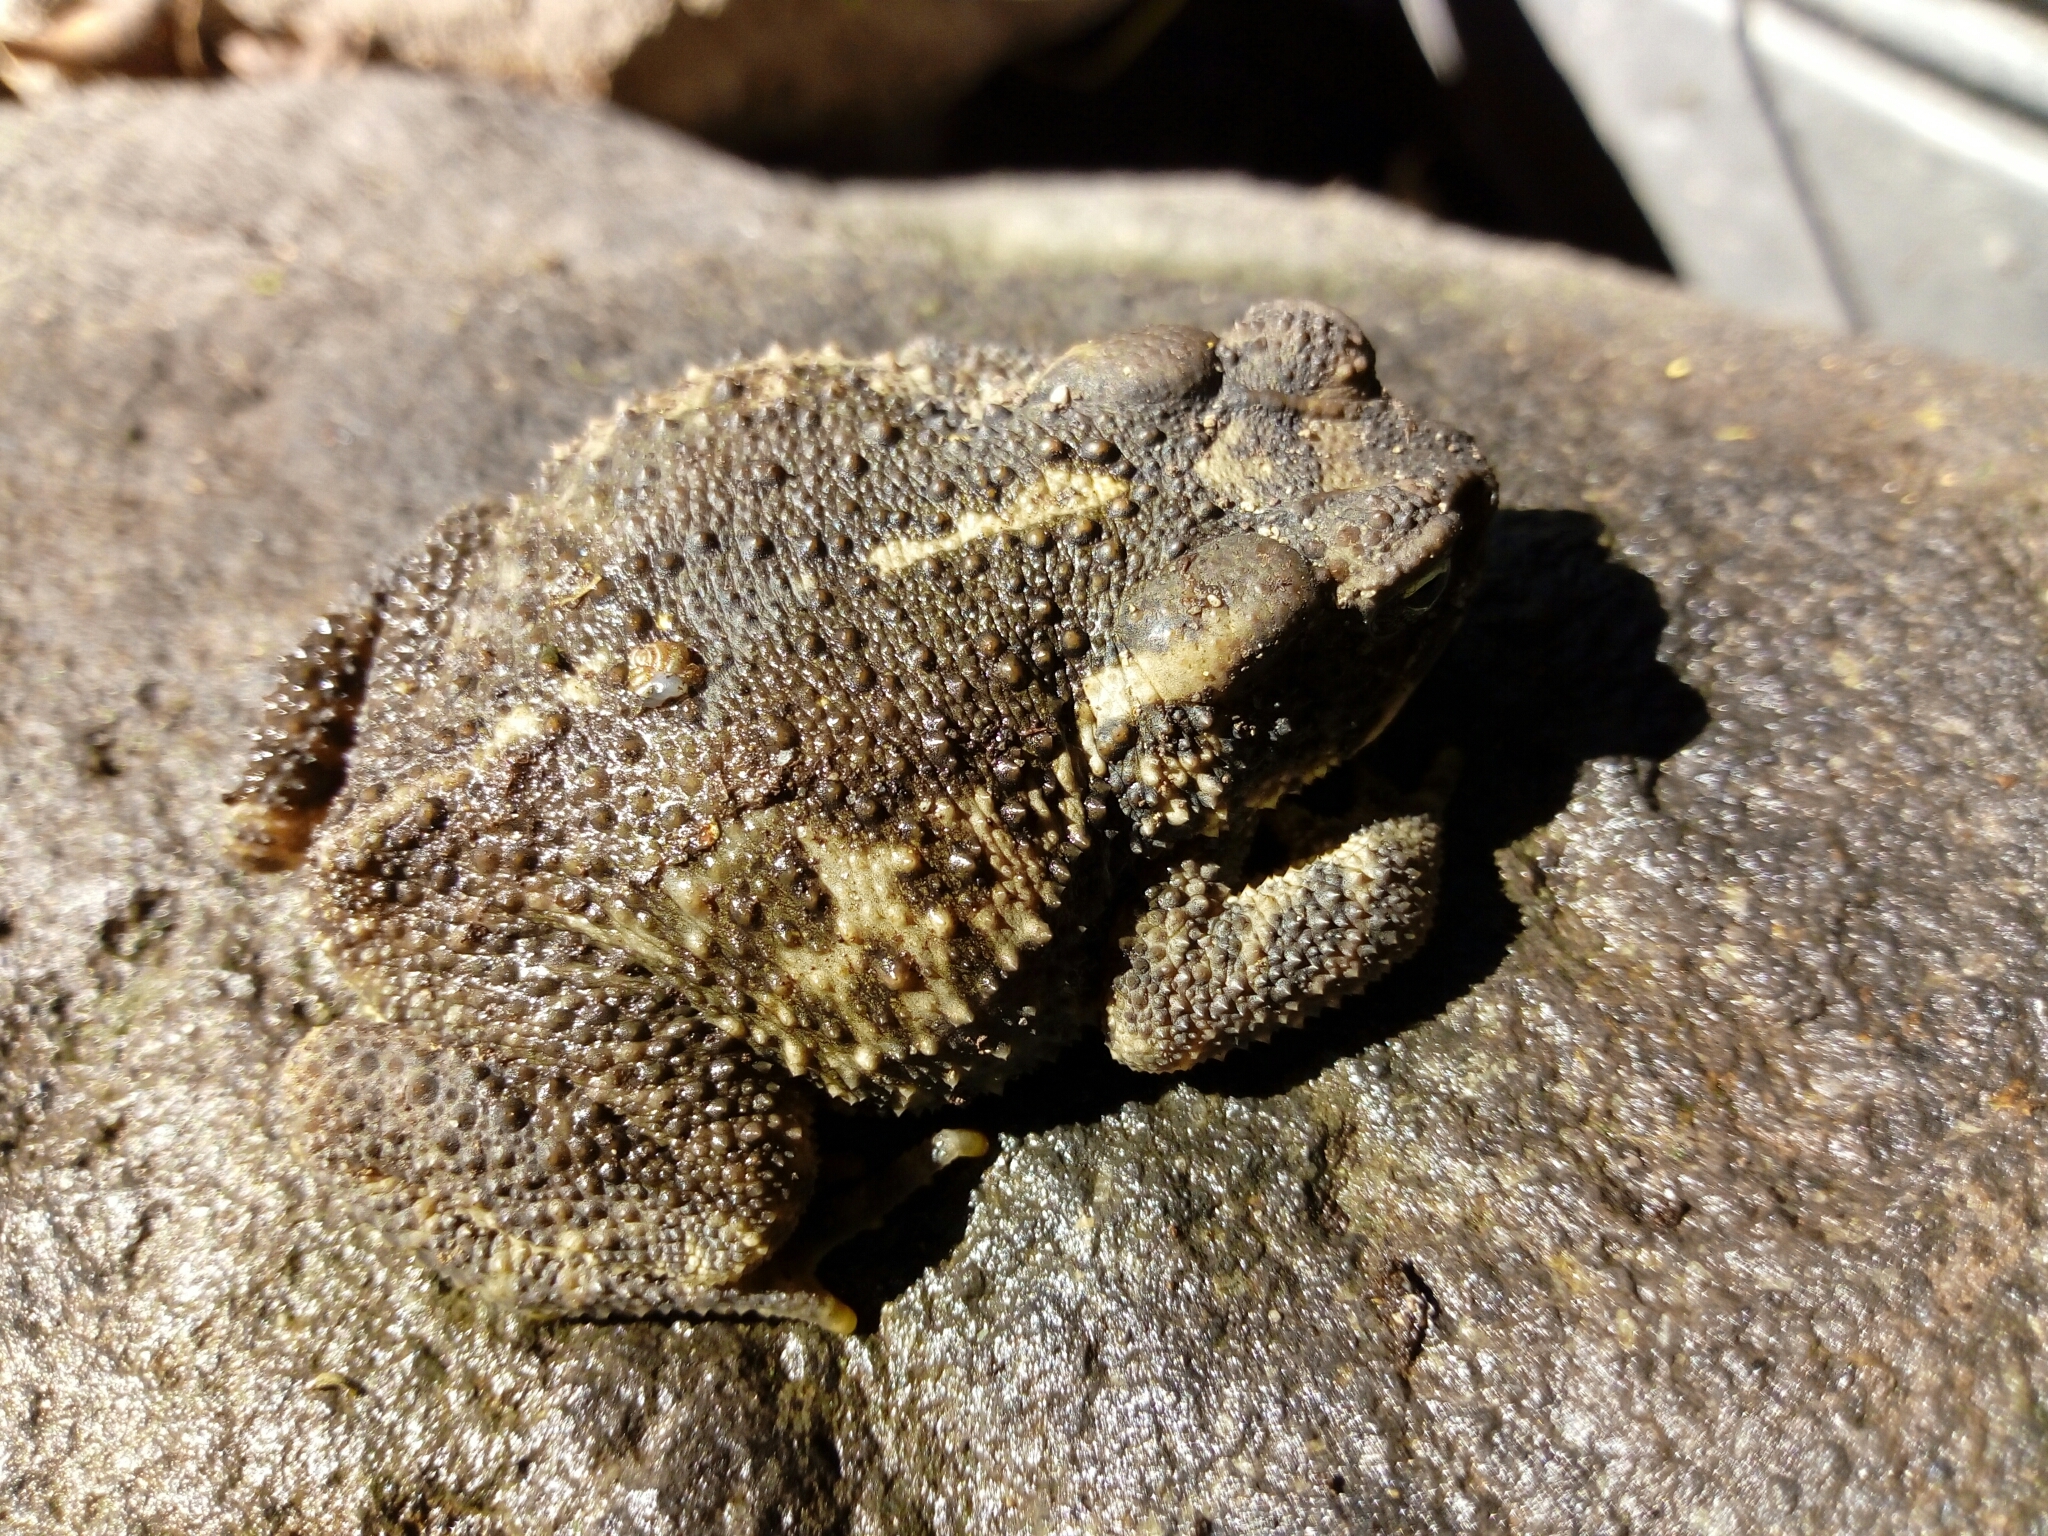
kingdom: Animalia
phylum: Chordata
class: Amphibia
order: Anura
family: Bufonidae
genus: Incilius
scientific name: Incilius occidentalis
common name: Pine toad
